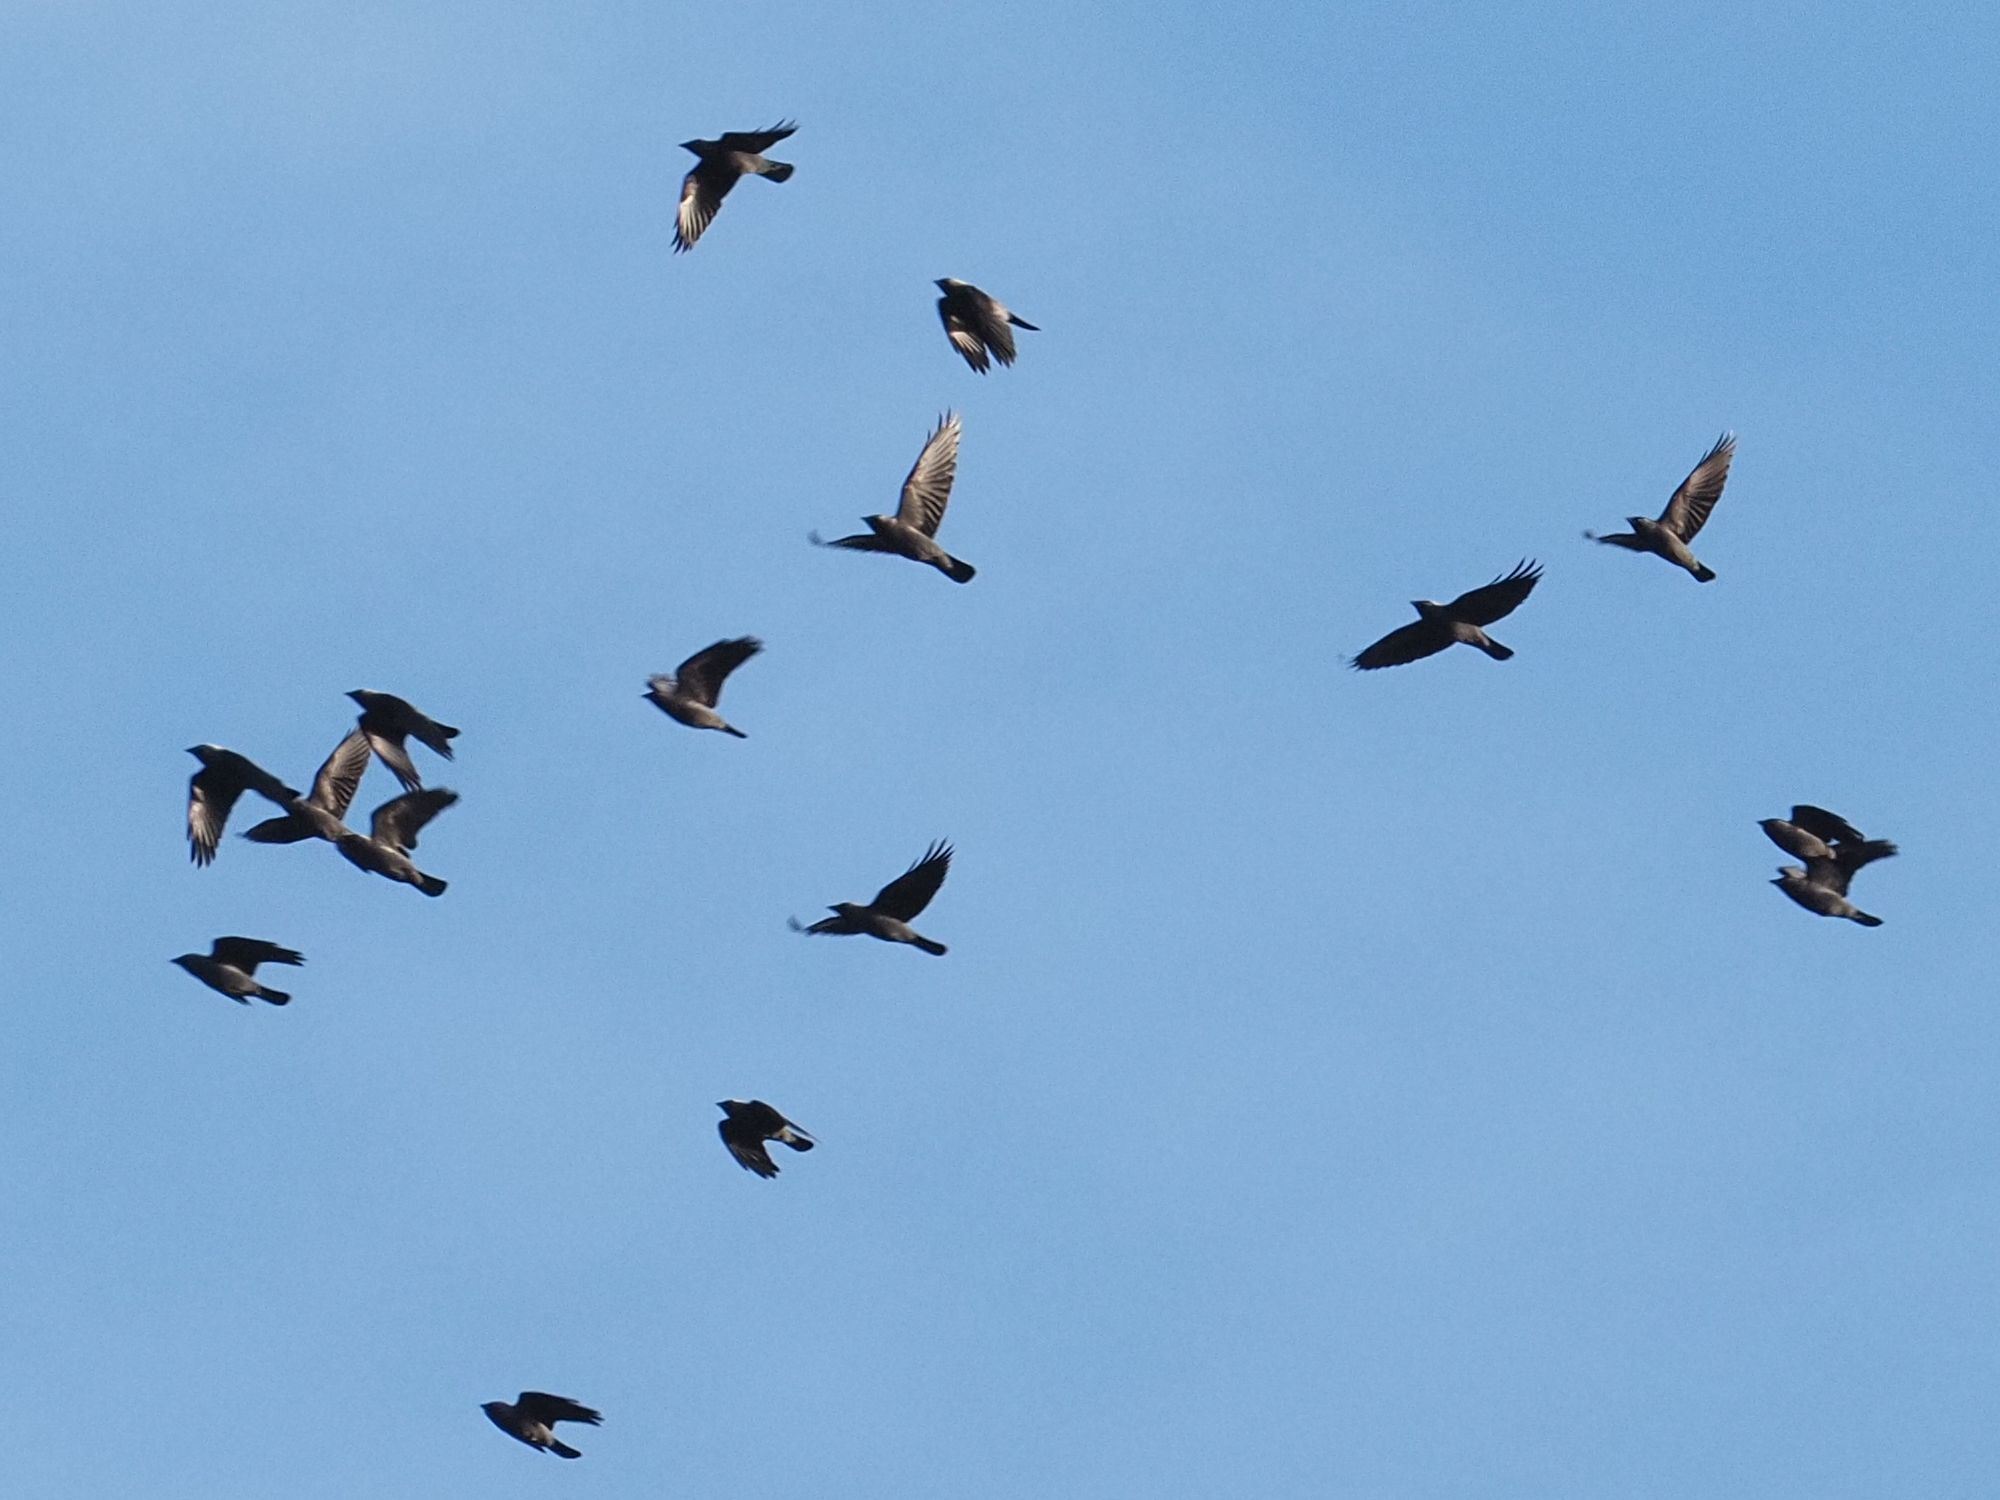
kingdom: Animalia
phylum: Chordata
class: Aves
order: Passeriformes
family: Corvidae
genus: Coloeus
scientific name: Coloeus monedula
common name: Western jackdaw
